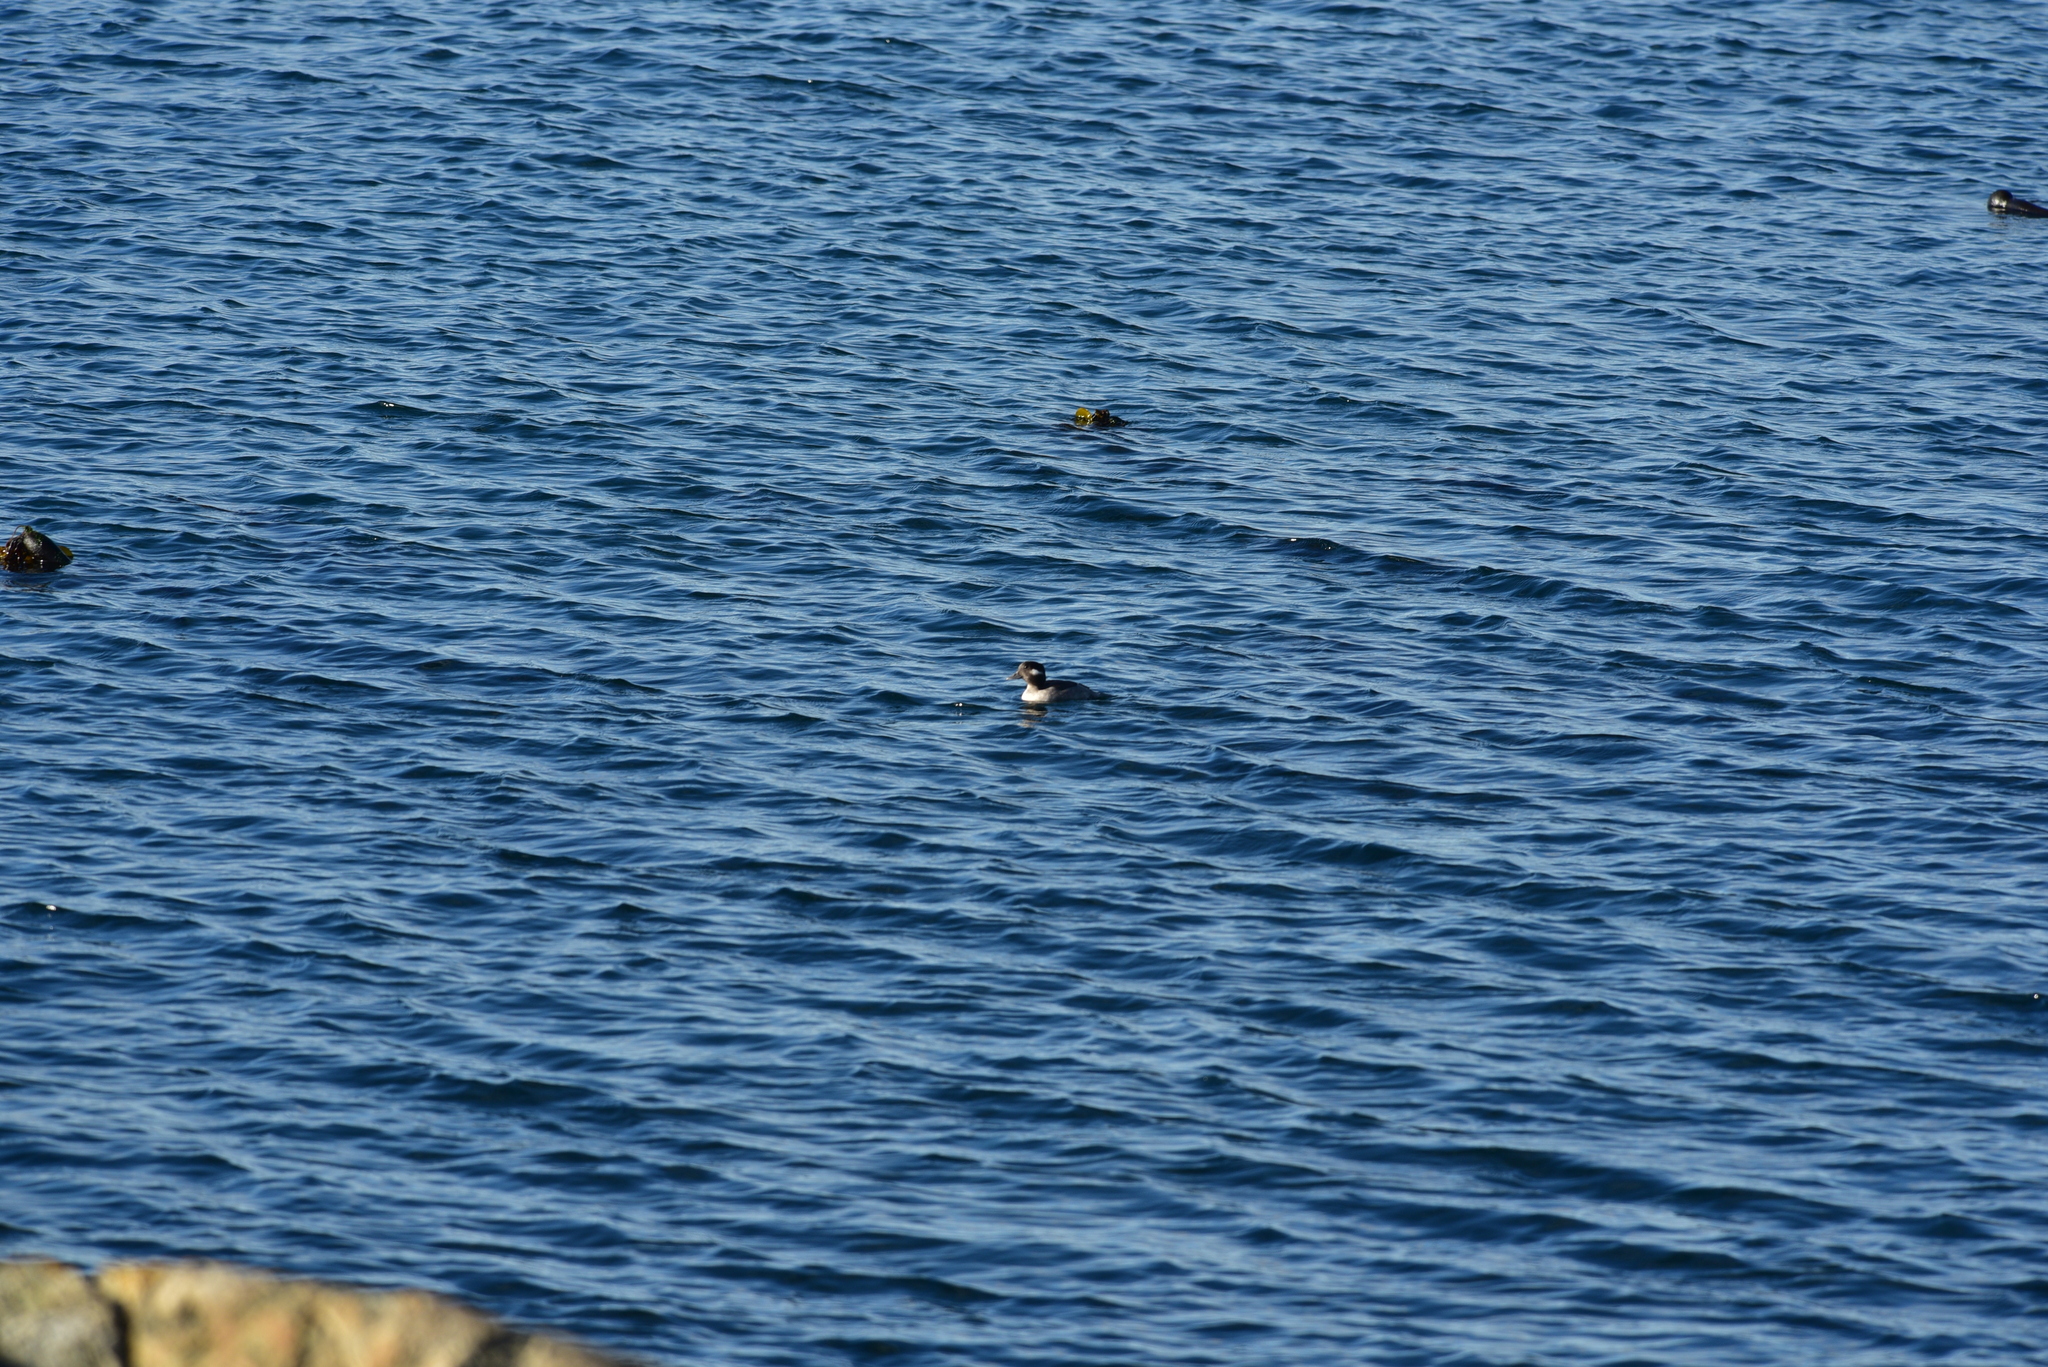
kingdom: Animalia
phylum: Chordata
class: Aves
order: Anseriformes
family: Anatidae
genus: Bucephala
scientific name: Bucephala albeola
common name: Bufflehead
